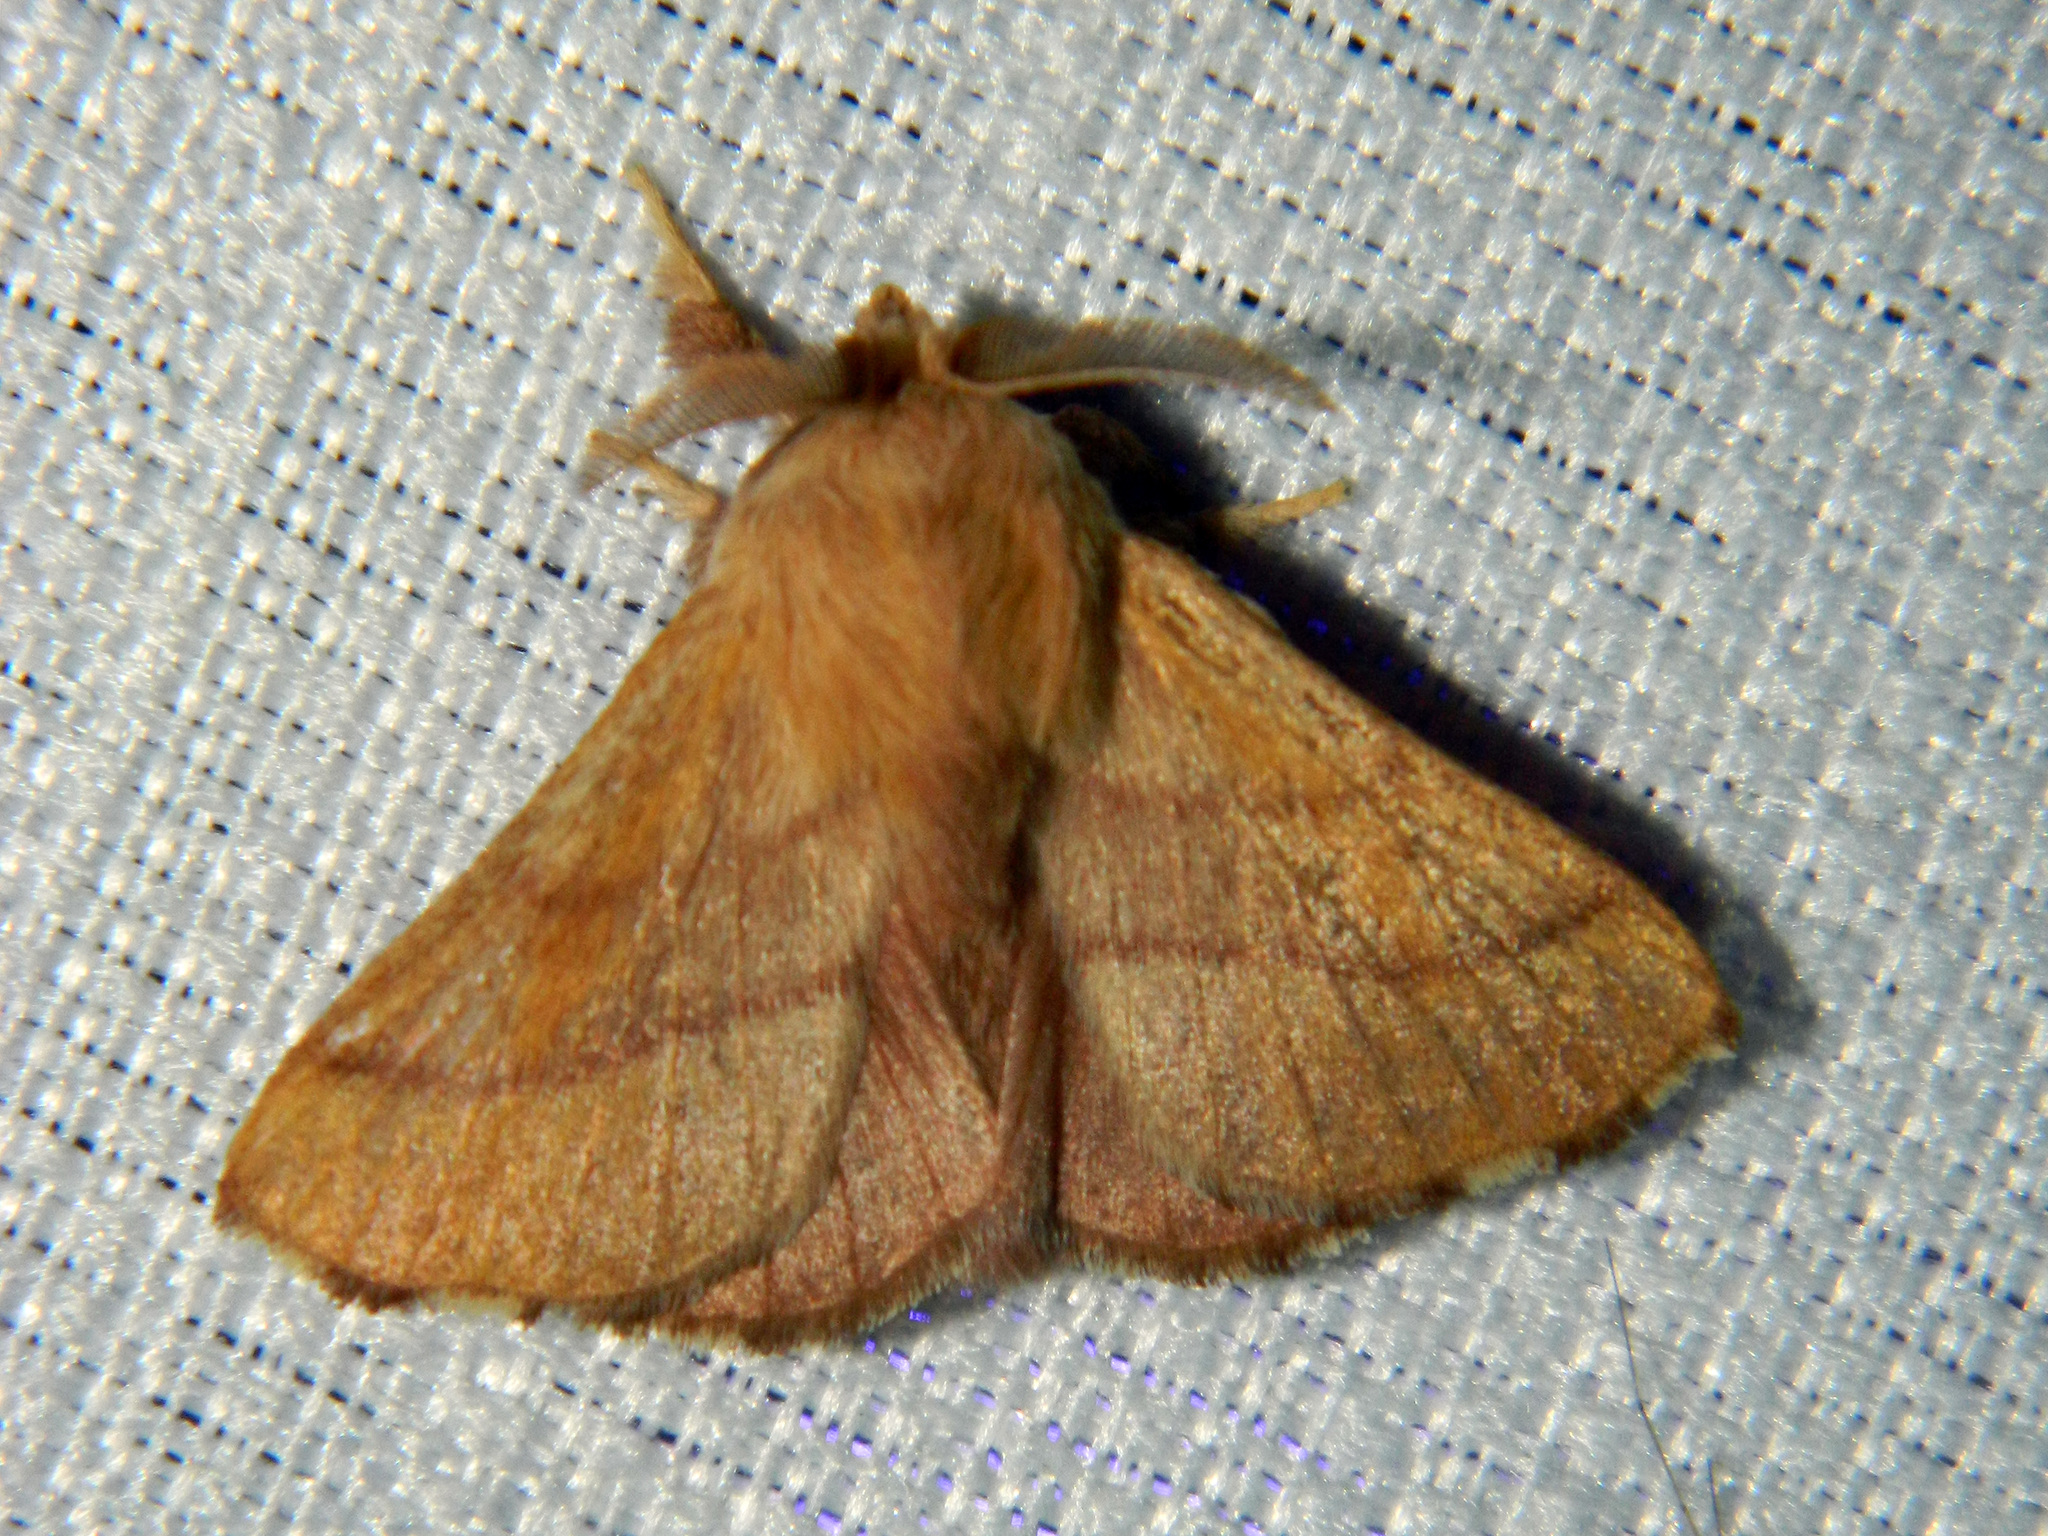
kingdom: Animalia
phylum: Arthropoda
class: Insecta
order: Lepidoptera
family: Lasiocampidae
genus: Malacosoma
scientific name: Malacosoma disstria
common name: Forest tent caterpillar
